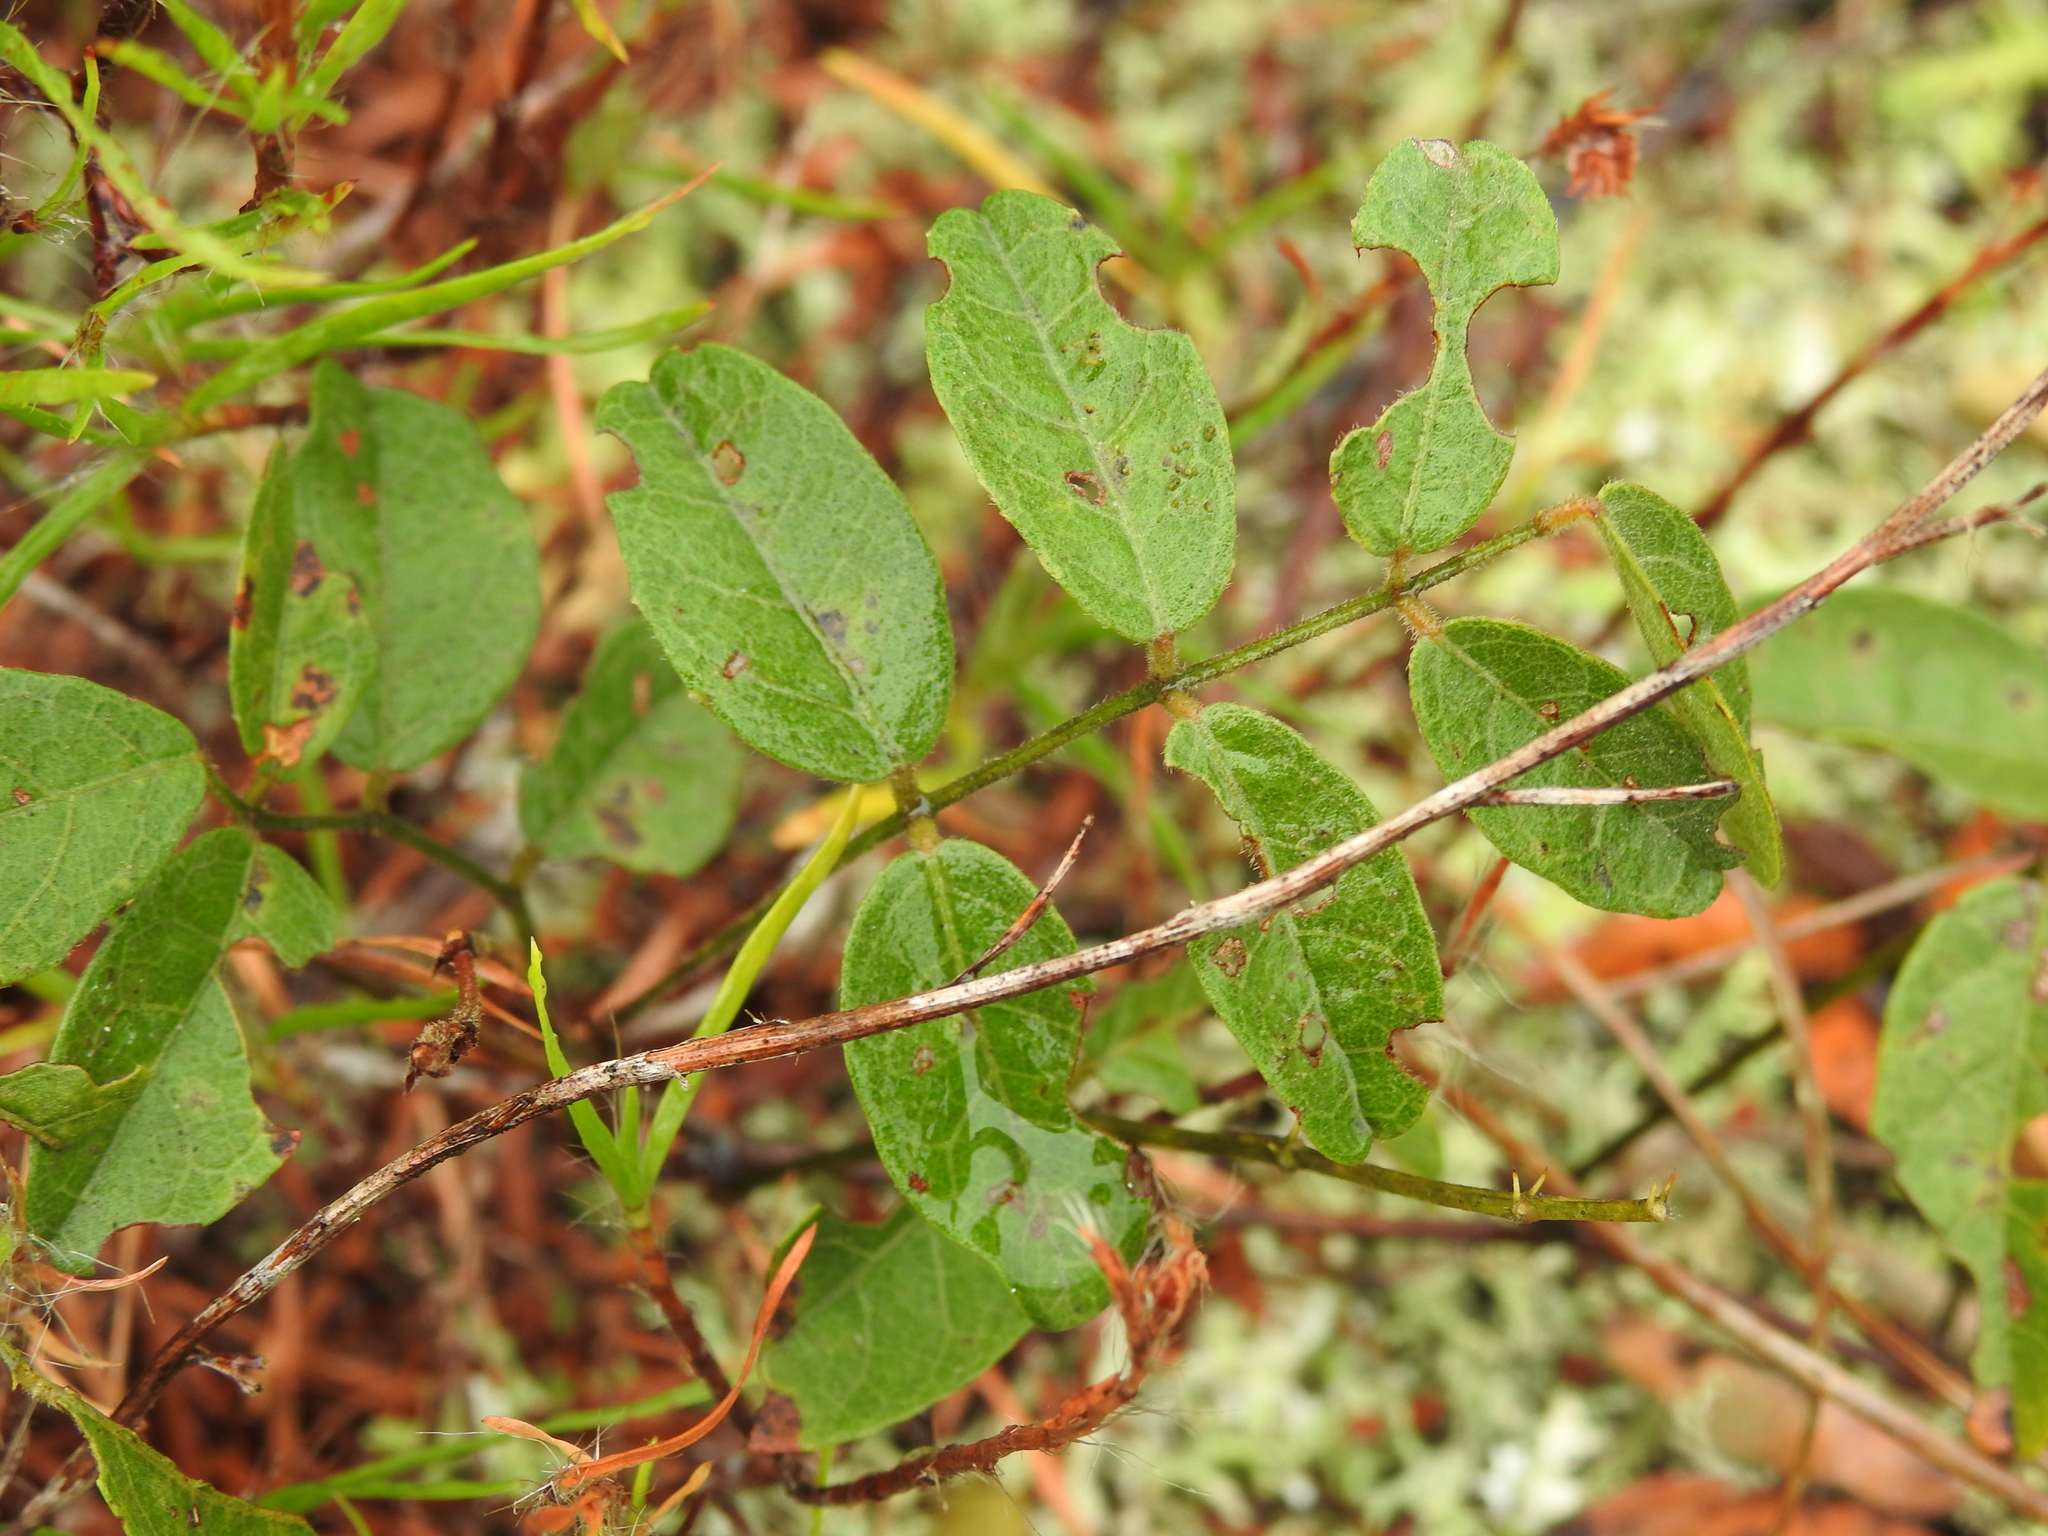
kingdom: Plantae
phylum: Tracheophyta
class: Magnoliopsida
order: Fabales
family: Fabaceae
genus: Galactia
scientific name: Galactia elliottii
